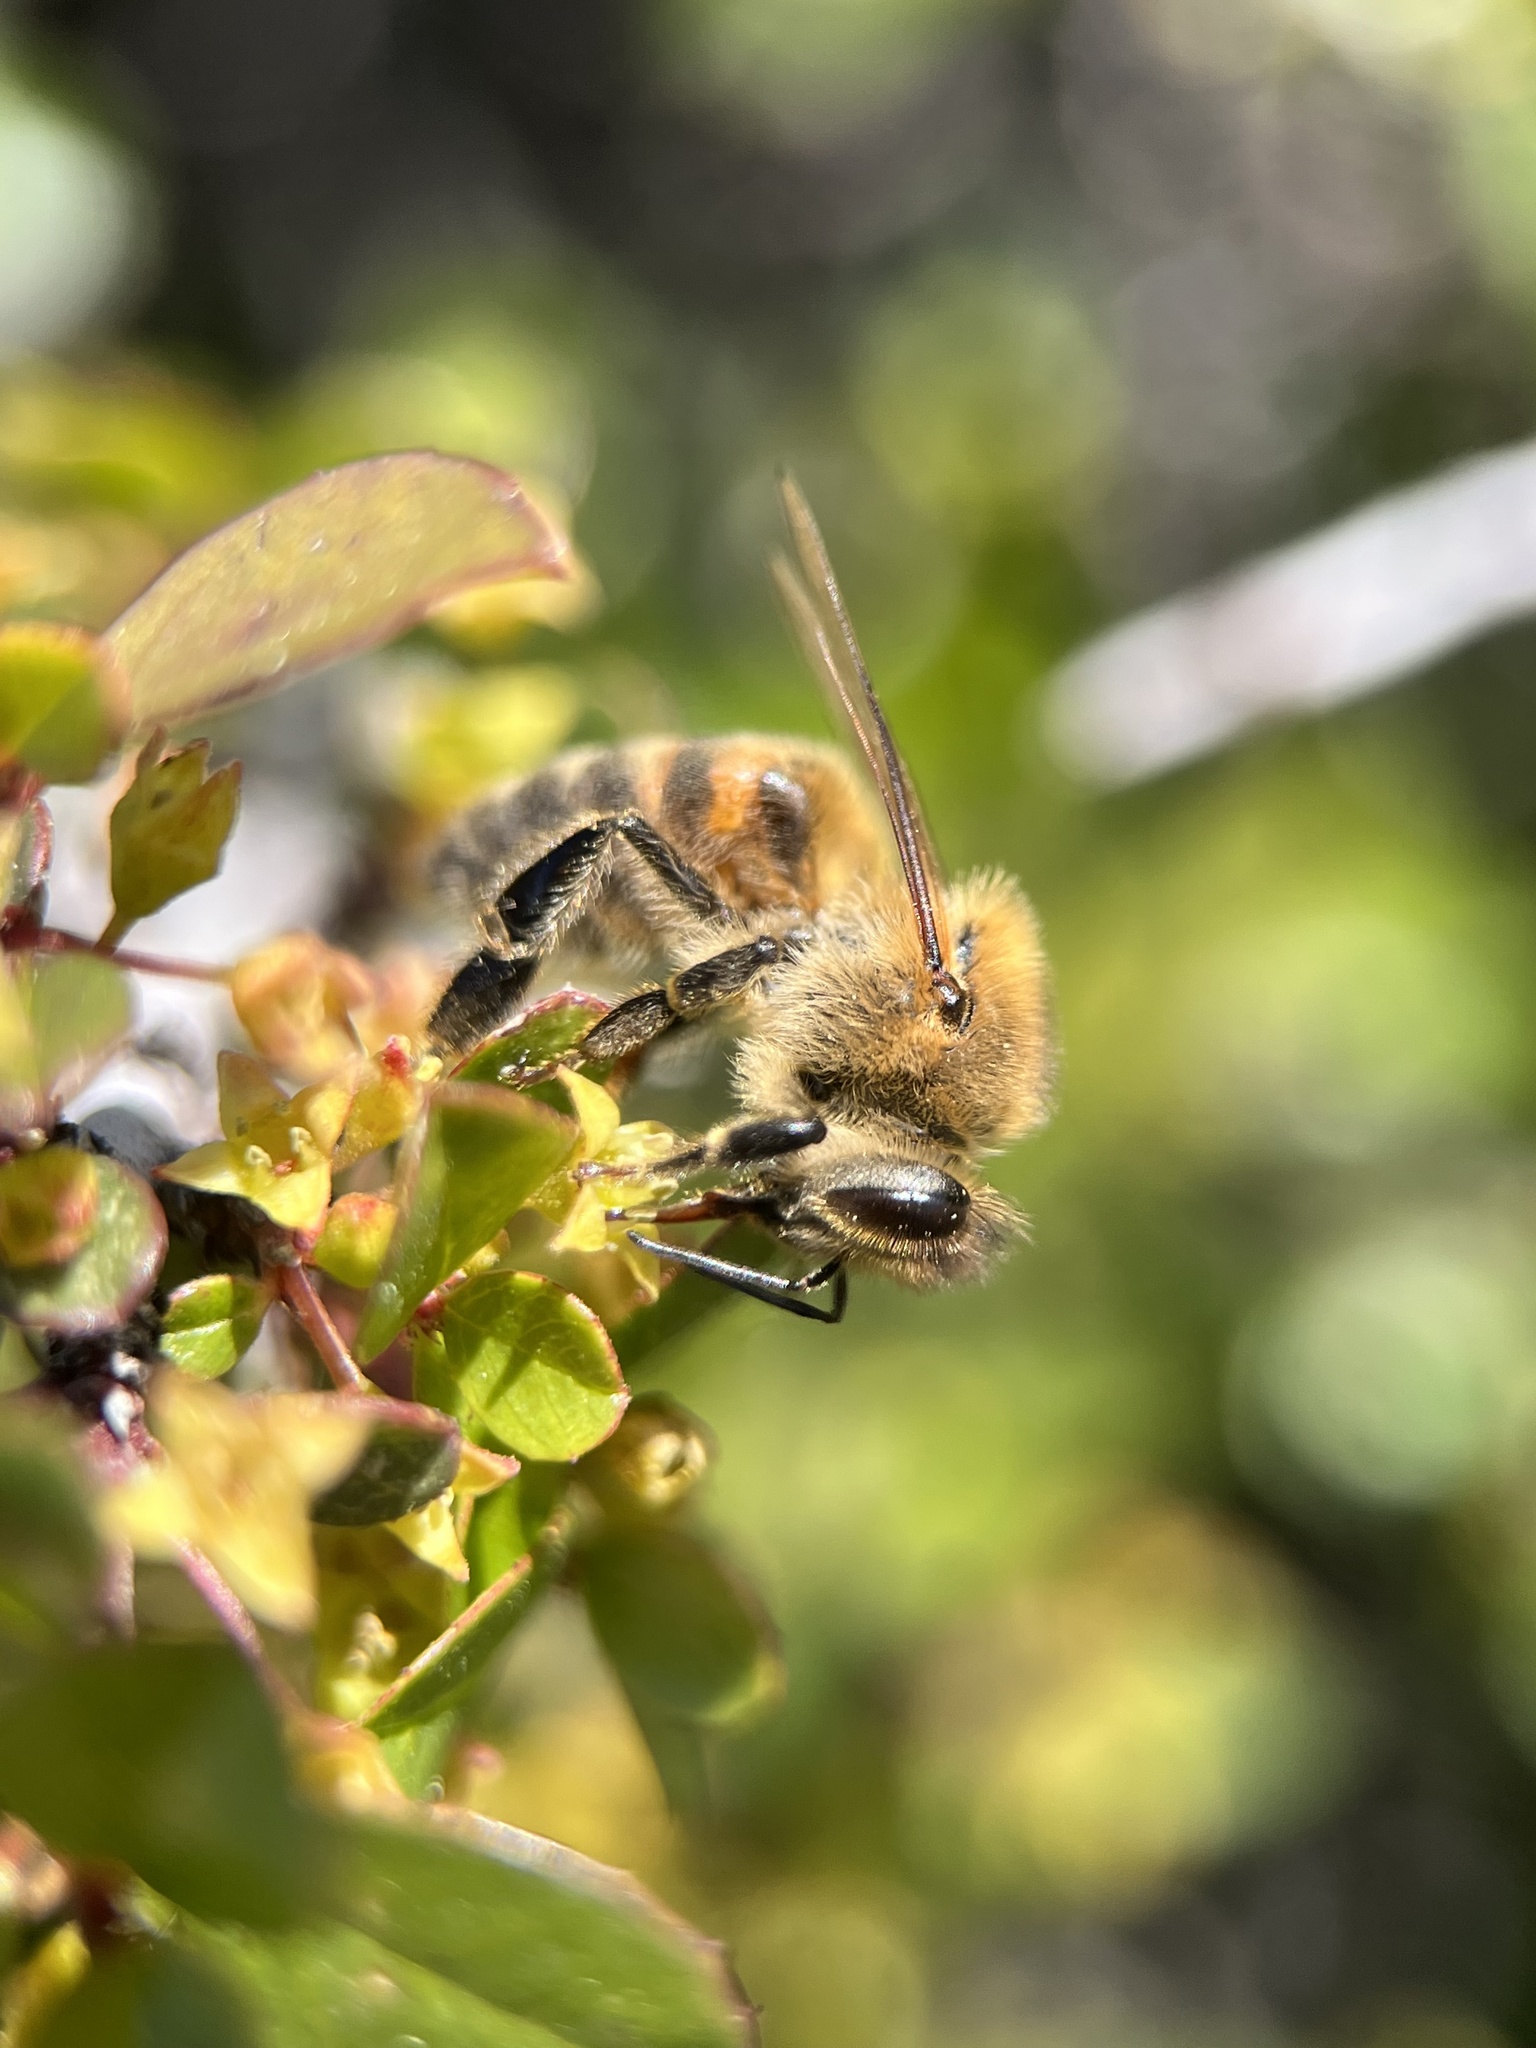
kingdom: Animalia
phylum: Arthropoda
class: Insecta
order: Hymenoptera
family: Apidae
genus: Apis
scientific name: Apis mellifera
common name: Honey bee
